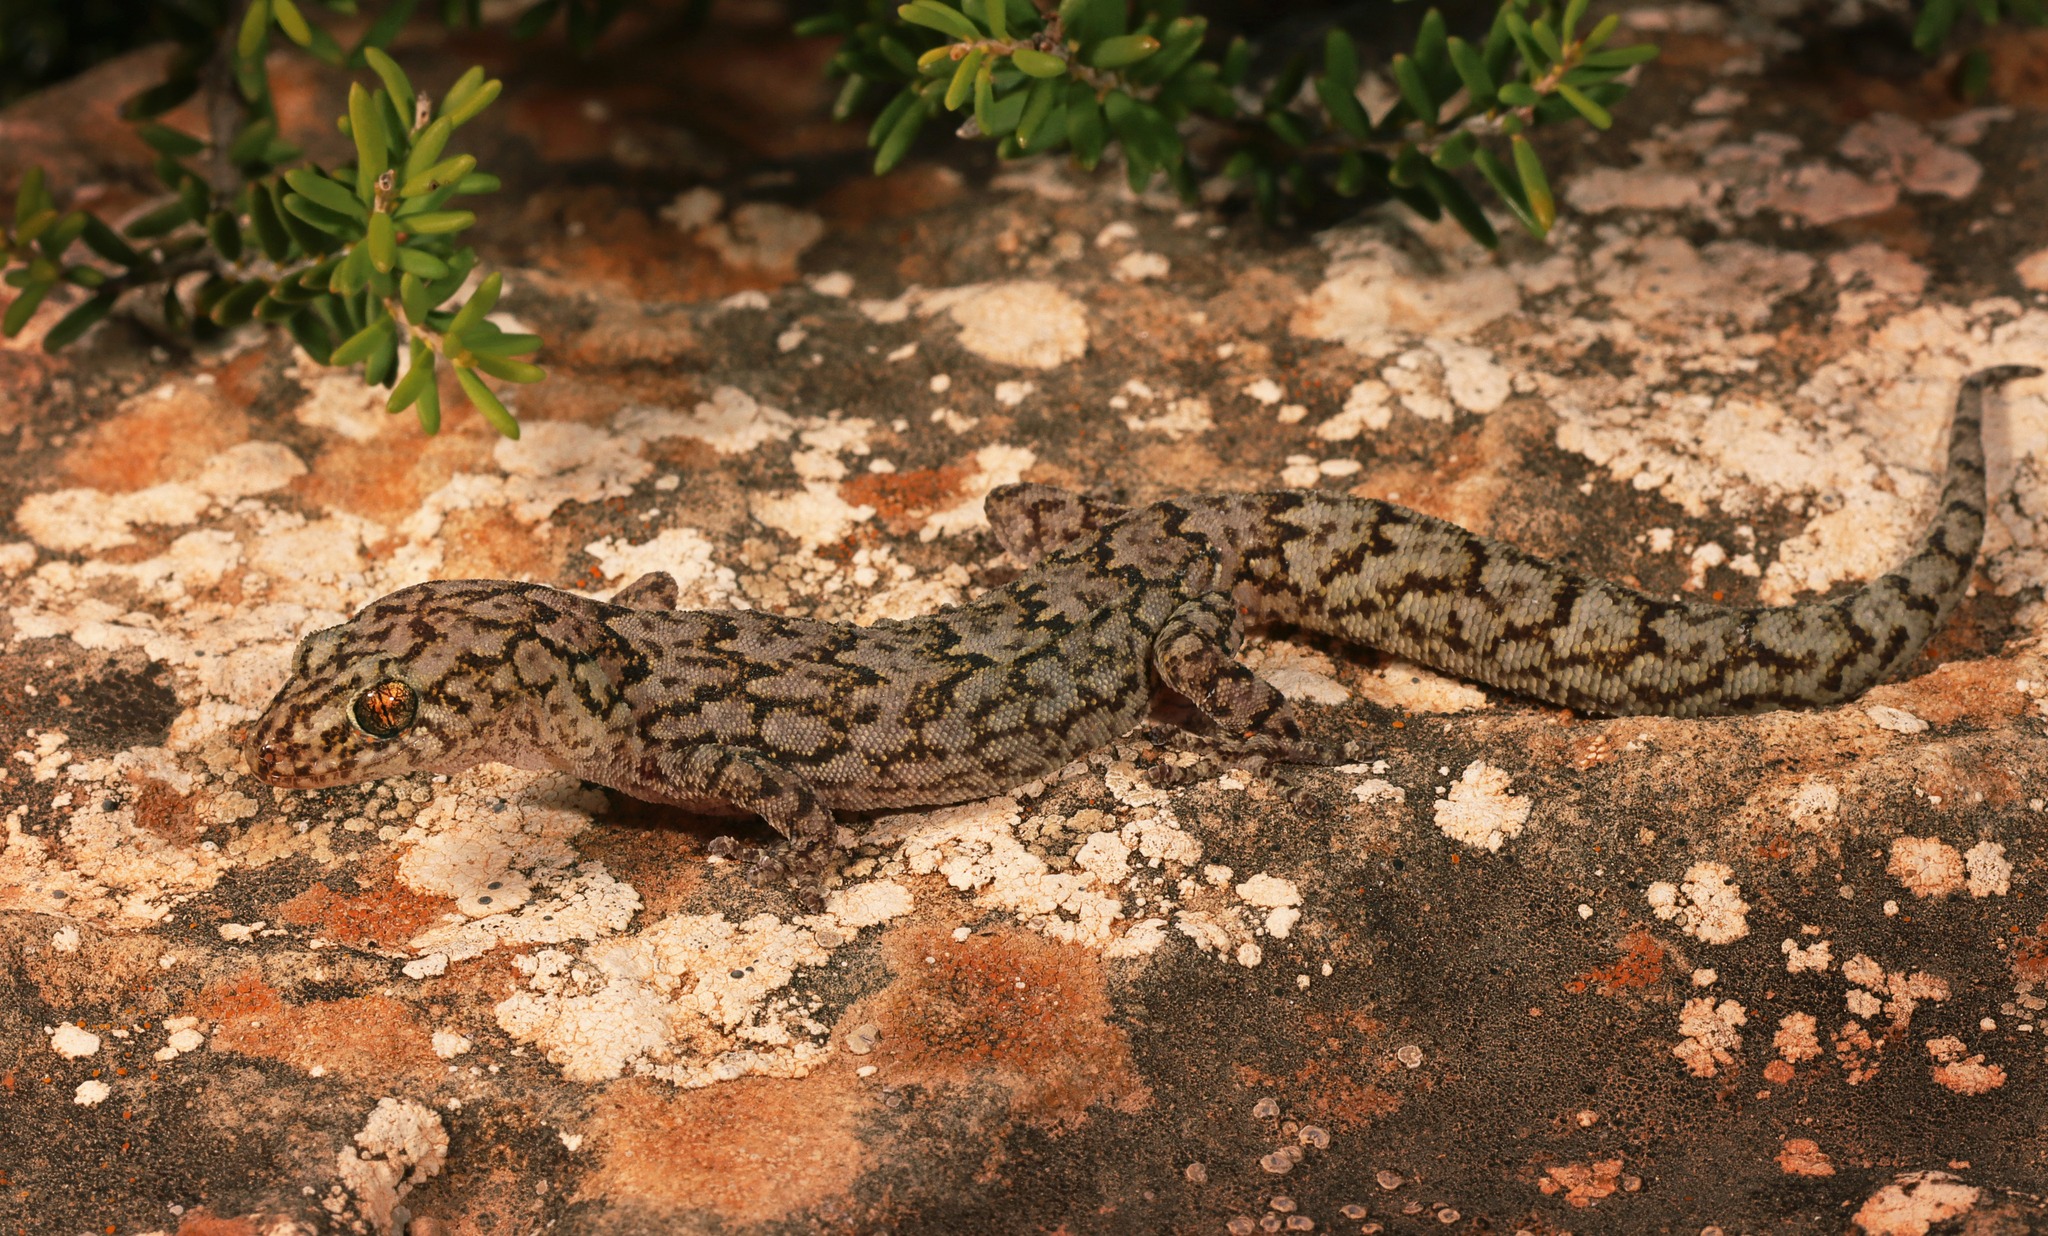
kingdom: Animalia
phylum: Chordata
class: Squamata
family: Gekkonidae
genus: Christinus
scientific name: Christinus alexanderi
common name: Alexander’s marbled gecko
